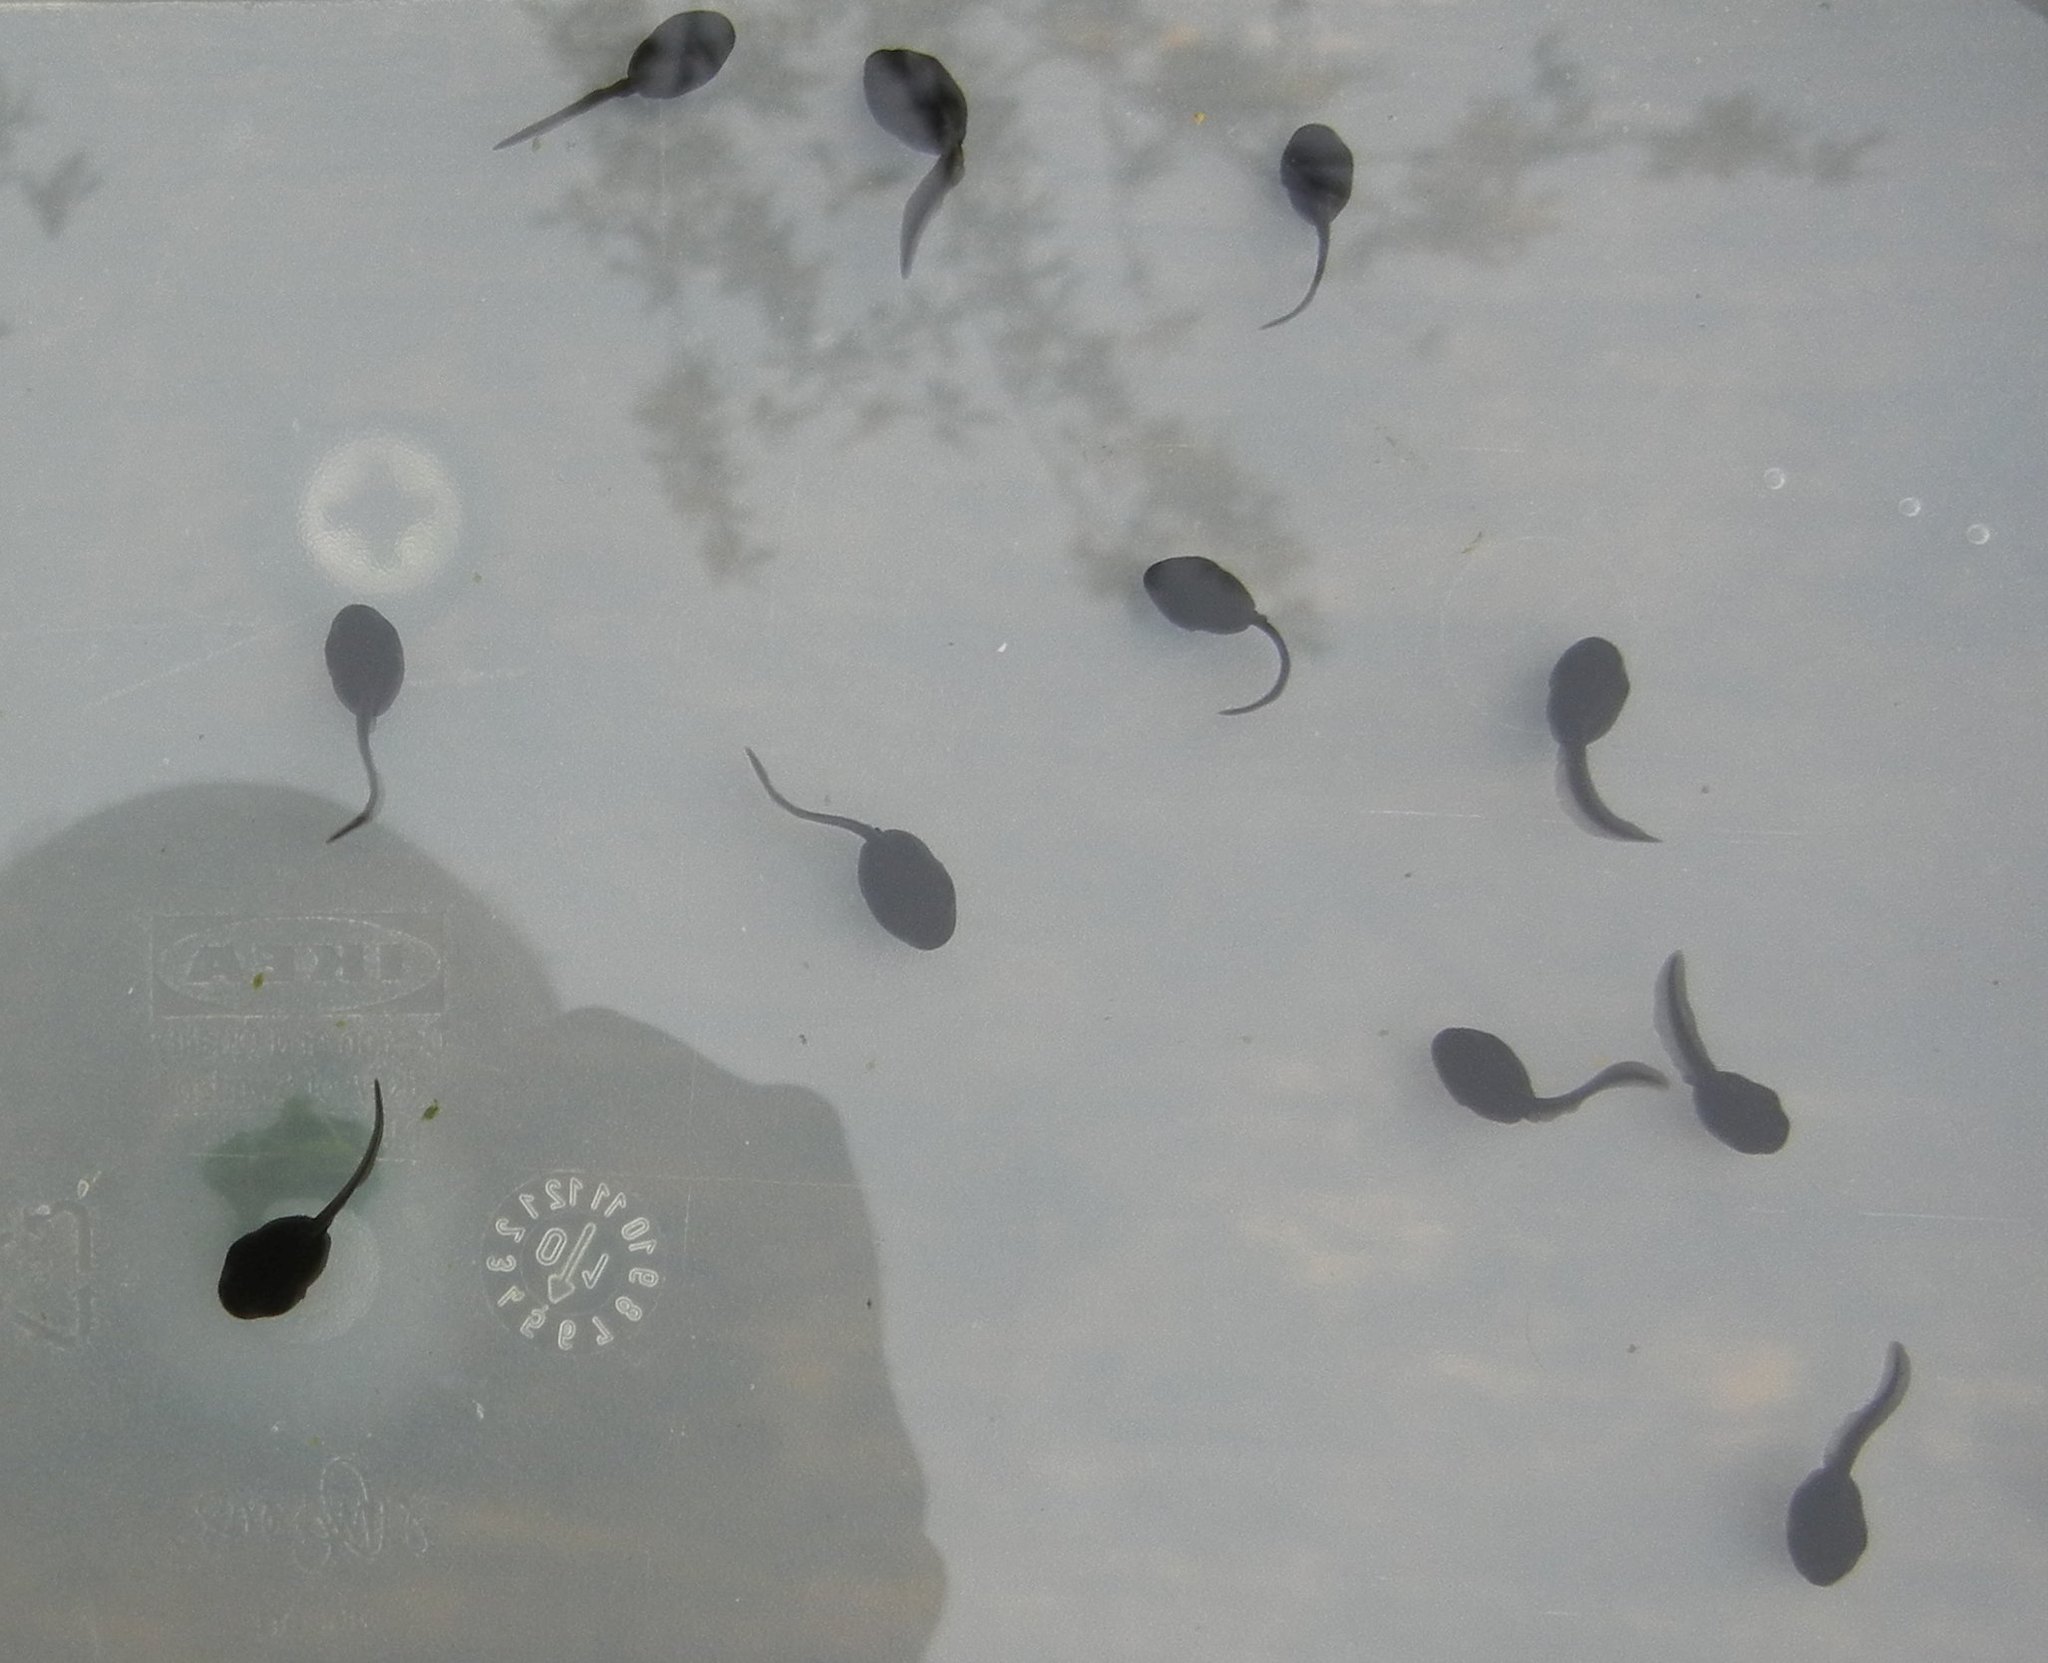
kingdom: Animalia
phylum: Chordata
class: Amphibia
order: Anura
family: Bufonidae
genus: Bufo
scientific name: Bufo bufo
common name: Common toad
